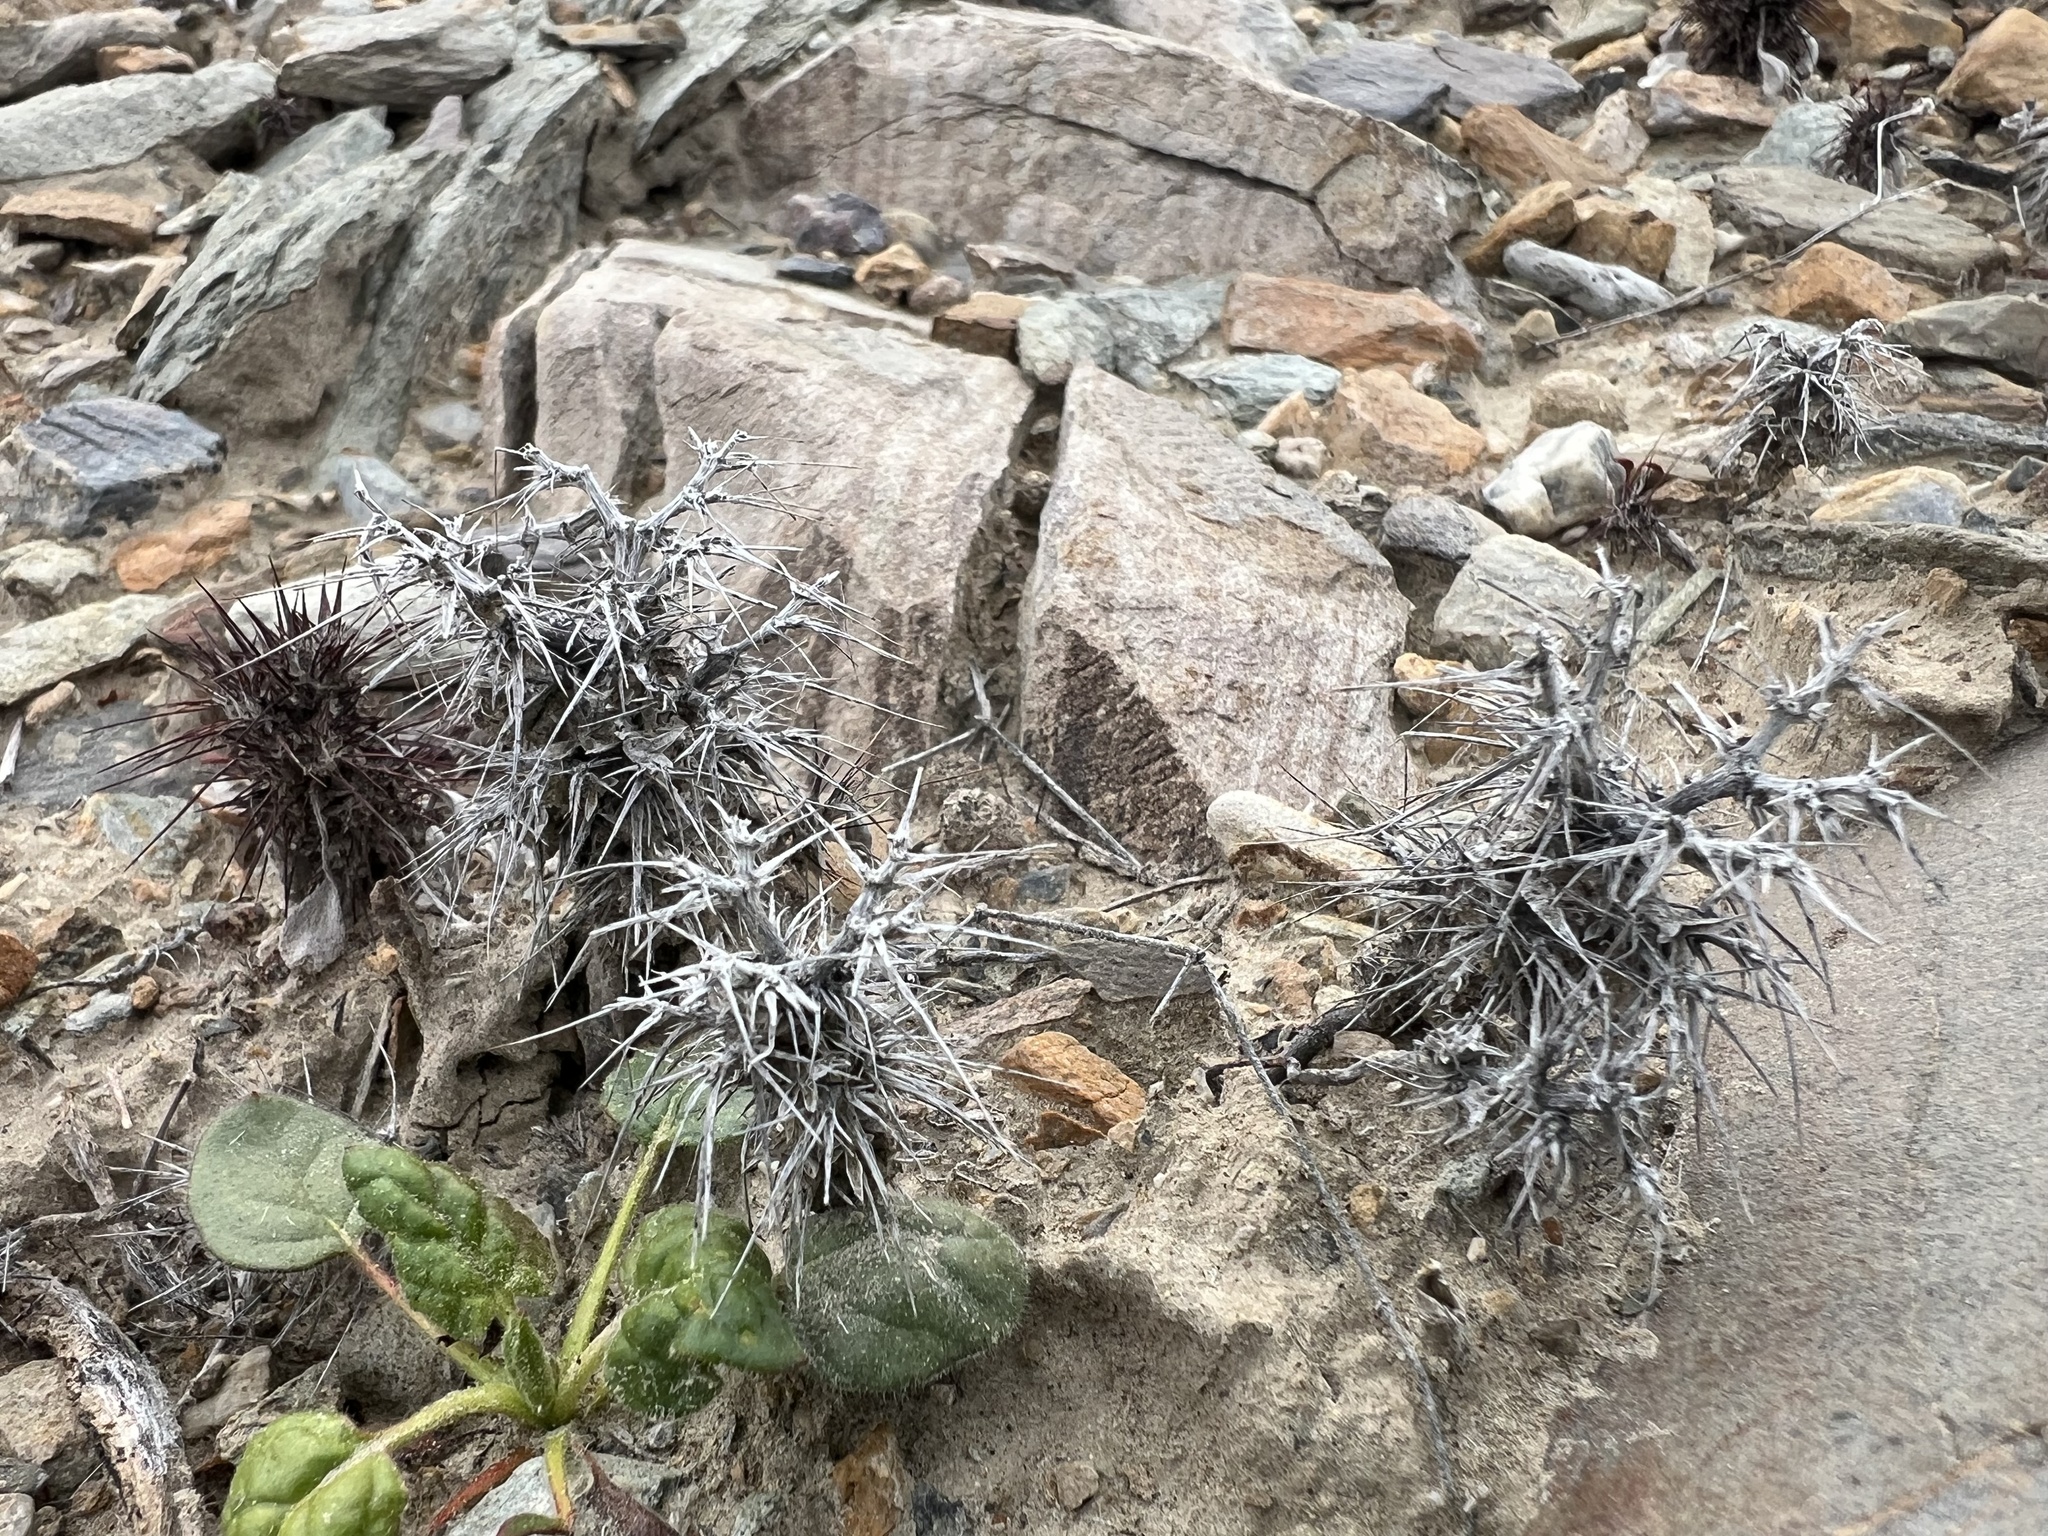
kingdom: Plantae
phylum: Tracheophyta
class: Magnoliopsida
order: Caryophyllales
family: Polygonaceae
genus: Chorizanthe
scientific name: Chorizanthe rigida
